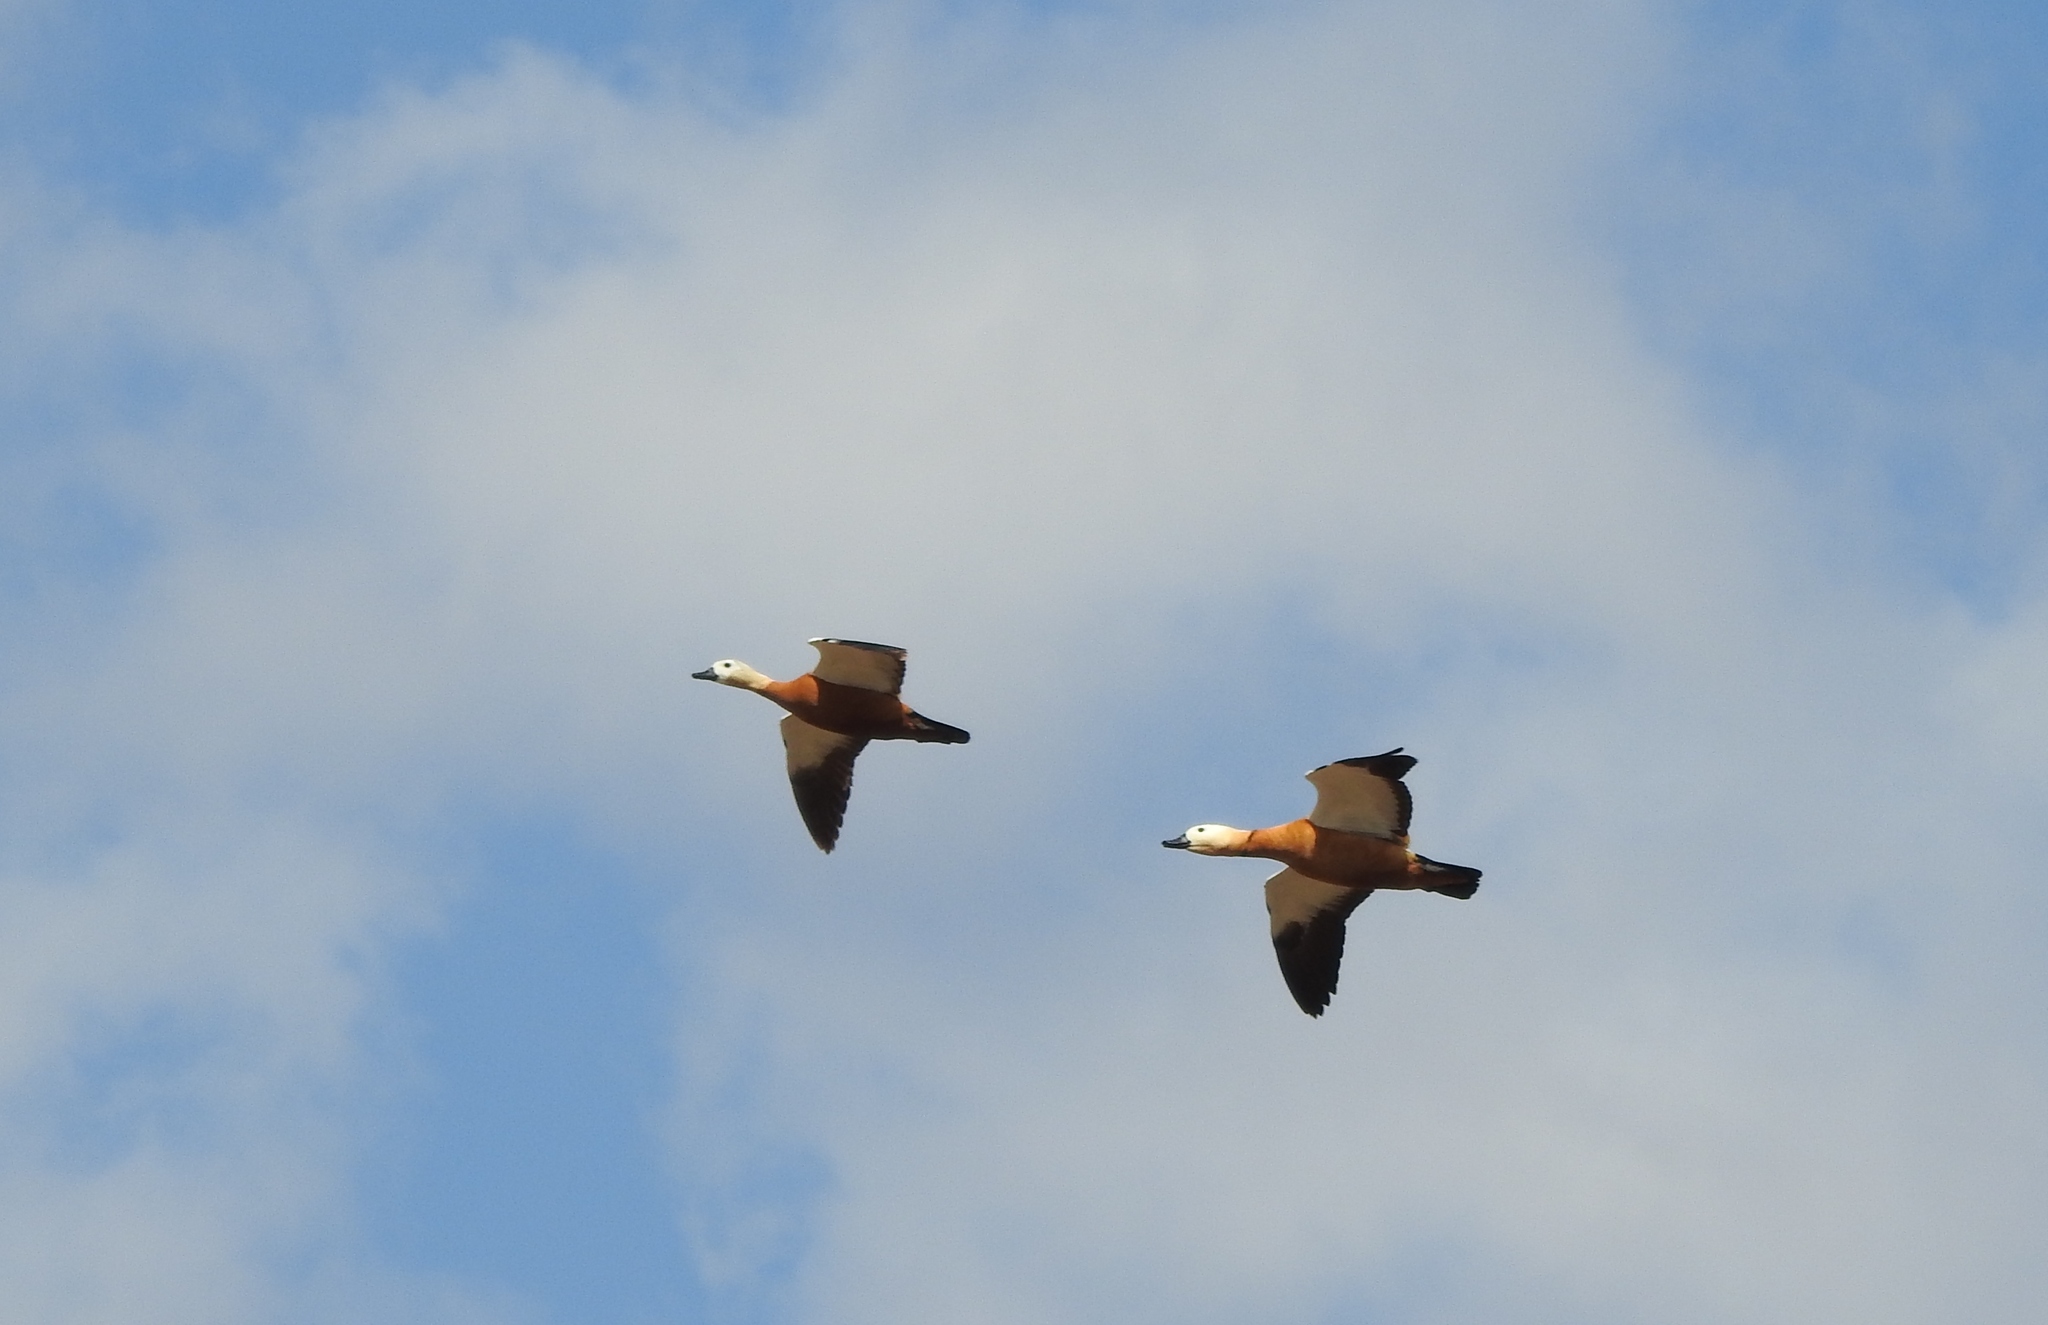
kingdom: Animalia
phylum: Chordata
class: Aves
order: Anseriformes
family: Anatidae
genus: Tadorna
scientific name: Tadorna ferruginea
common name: Ruddy shelduck
